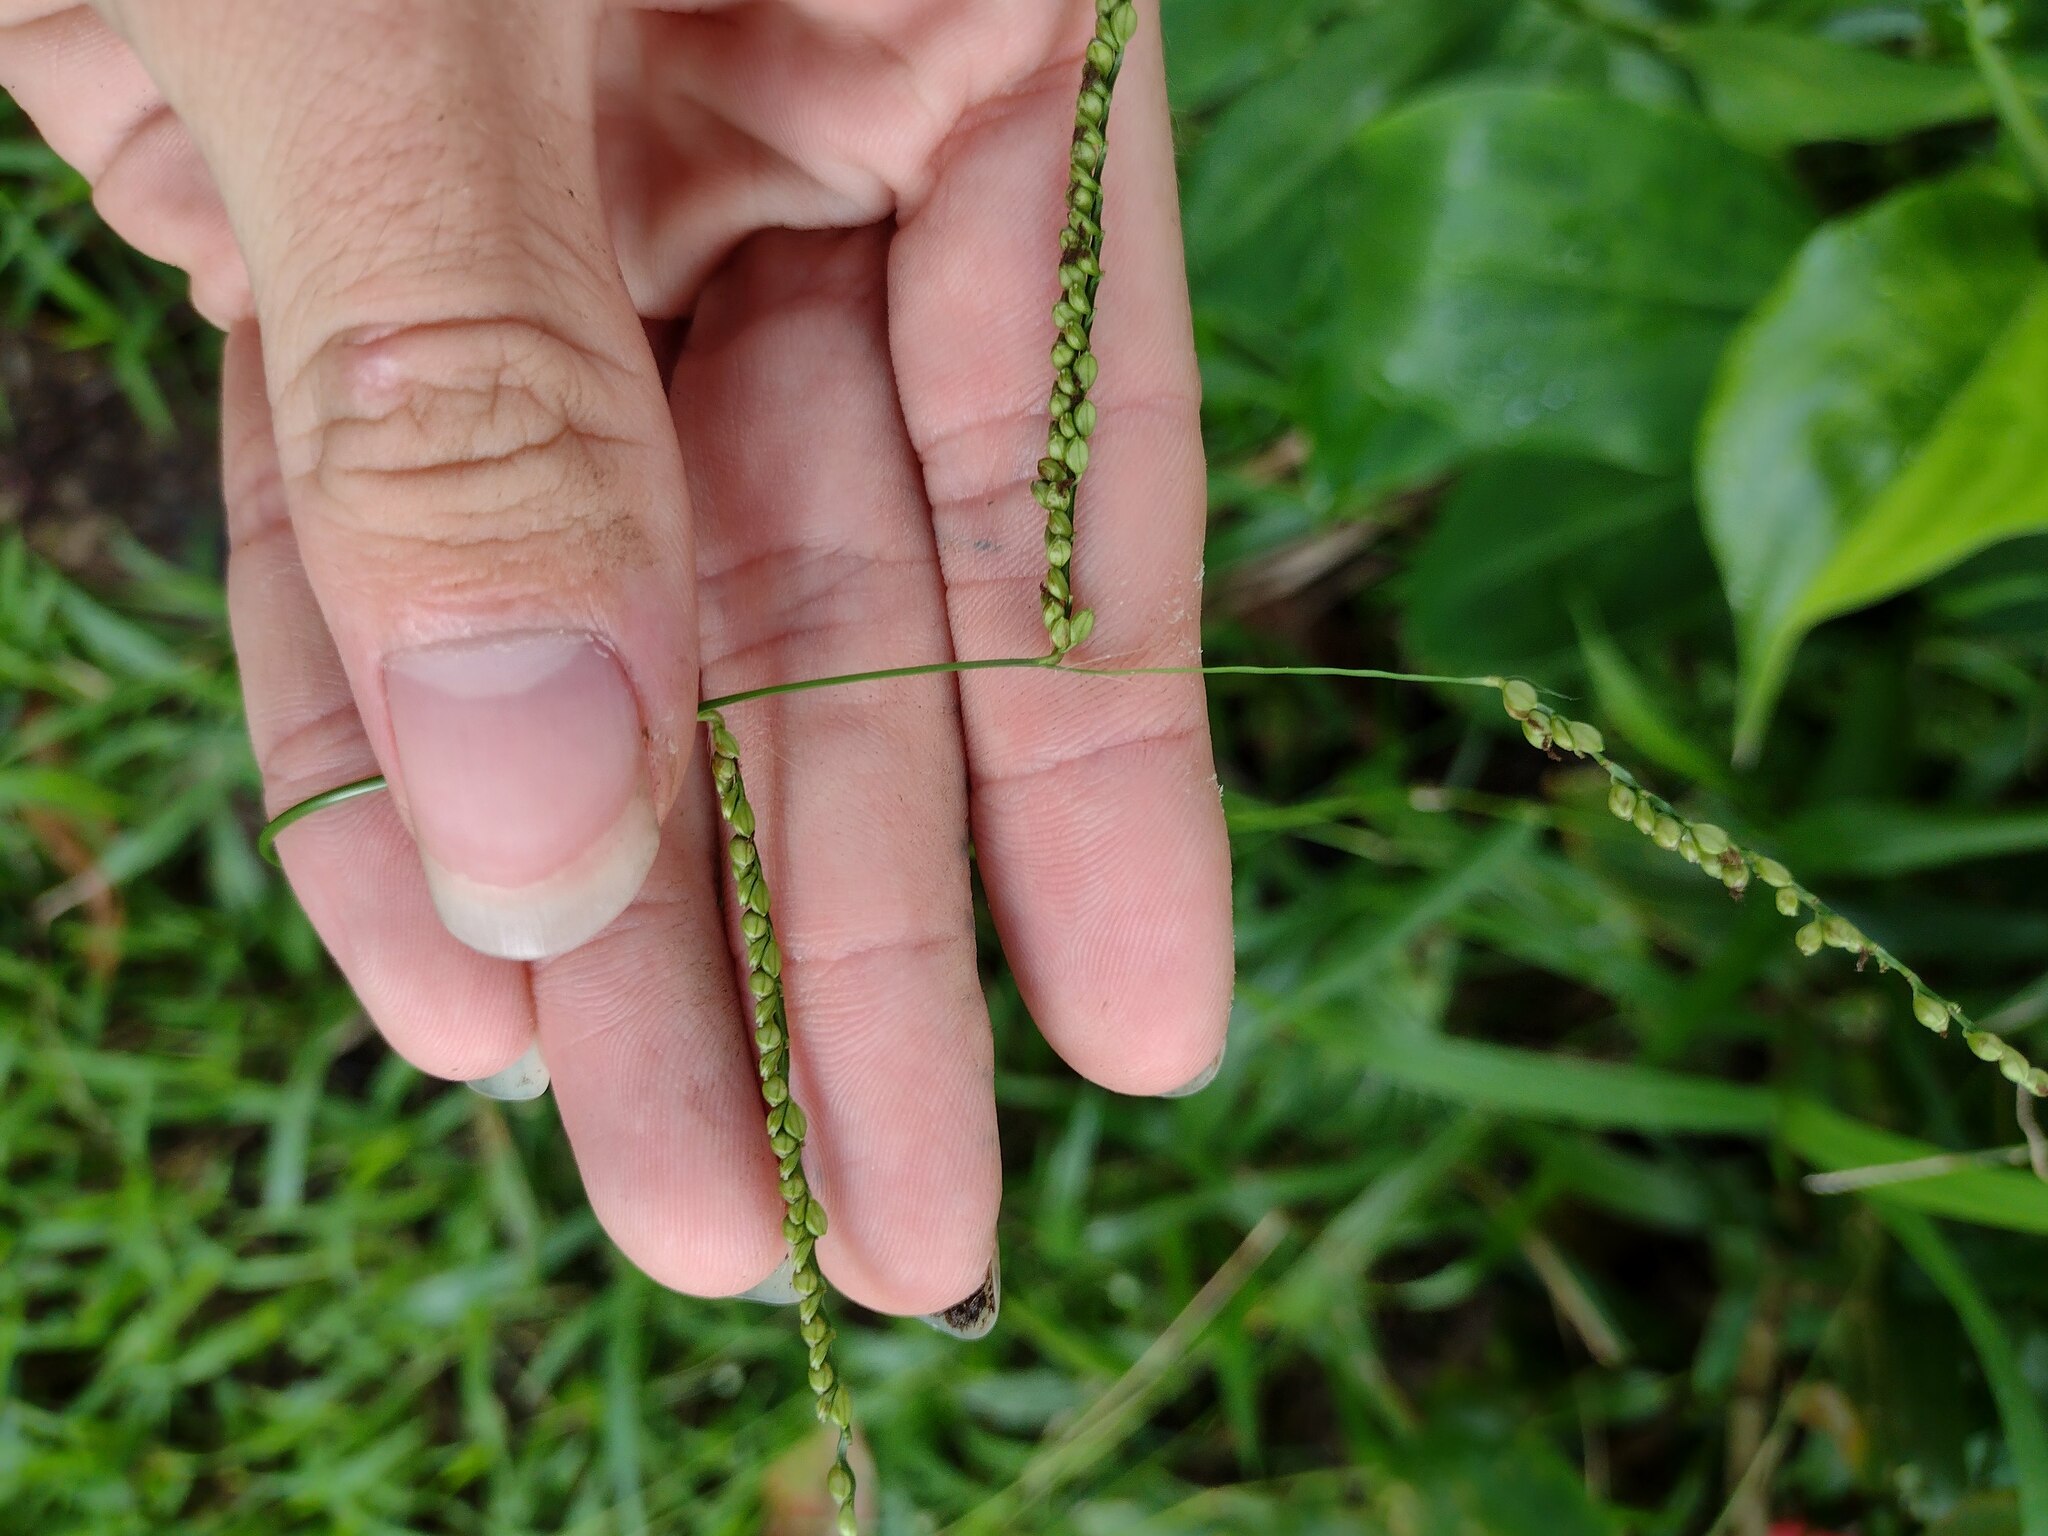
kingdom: Plantae
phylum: Tracheophyta
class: Liliopsida
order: Poales
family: Poaceae
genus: Paspalum
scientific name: Paspalum mandiocanum
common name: Paspalum
